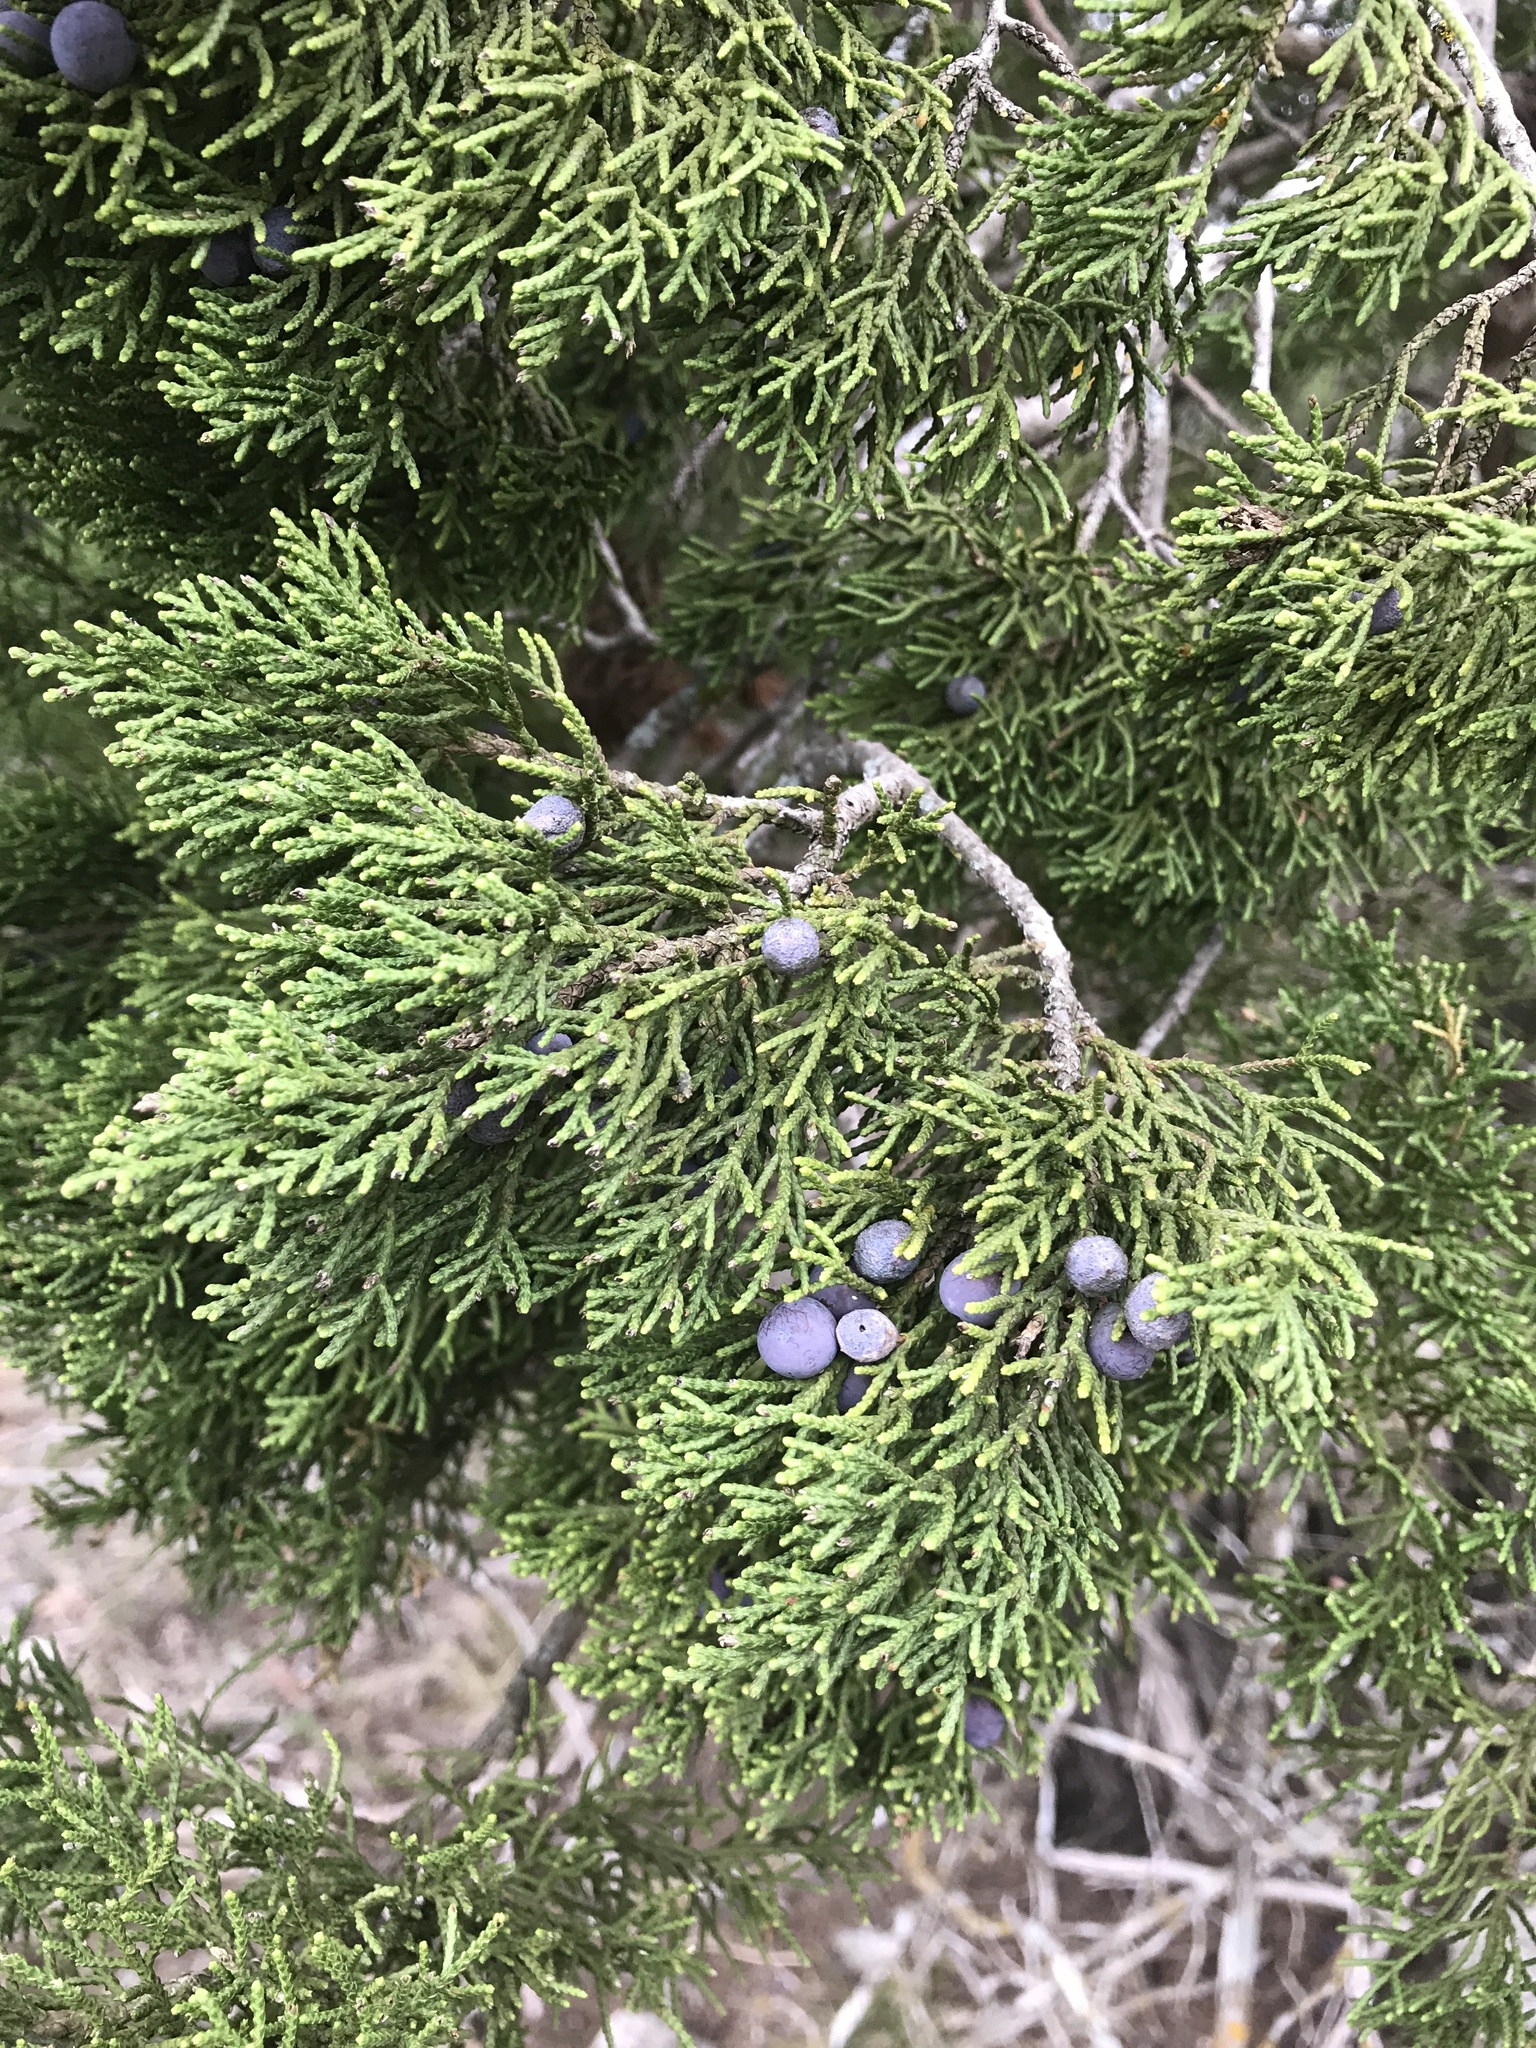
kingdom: Plantae
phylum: Tracheophyta
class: Pinopsida
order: Pinales
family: Cupressaceae
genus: Juniperus
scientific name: Juniperus ashei
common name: Mexican juniper
